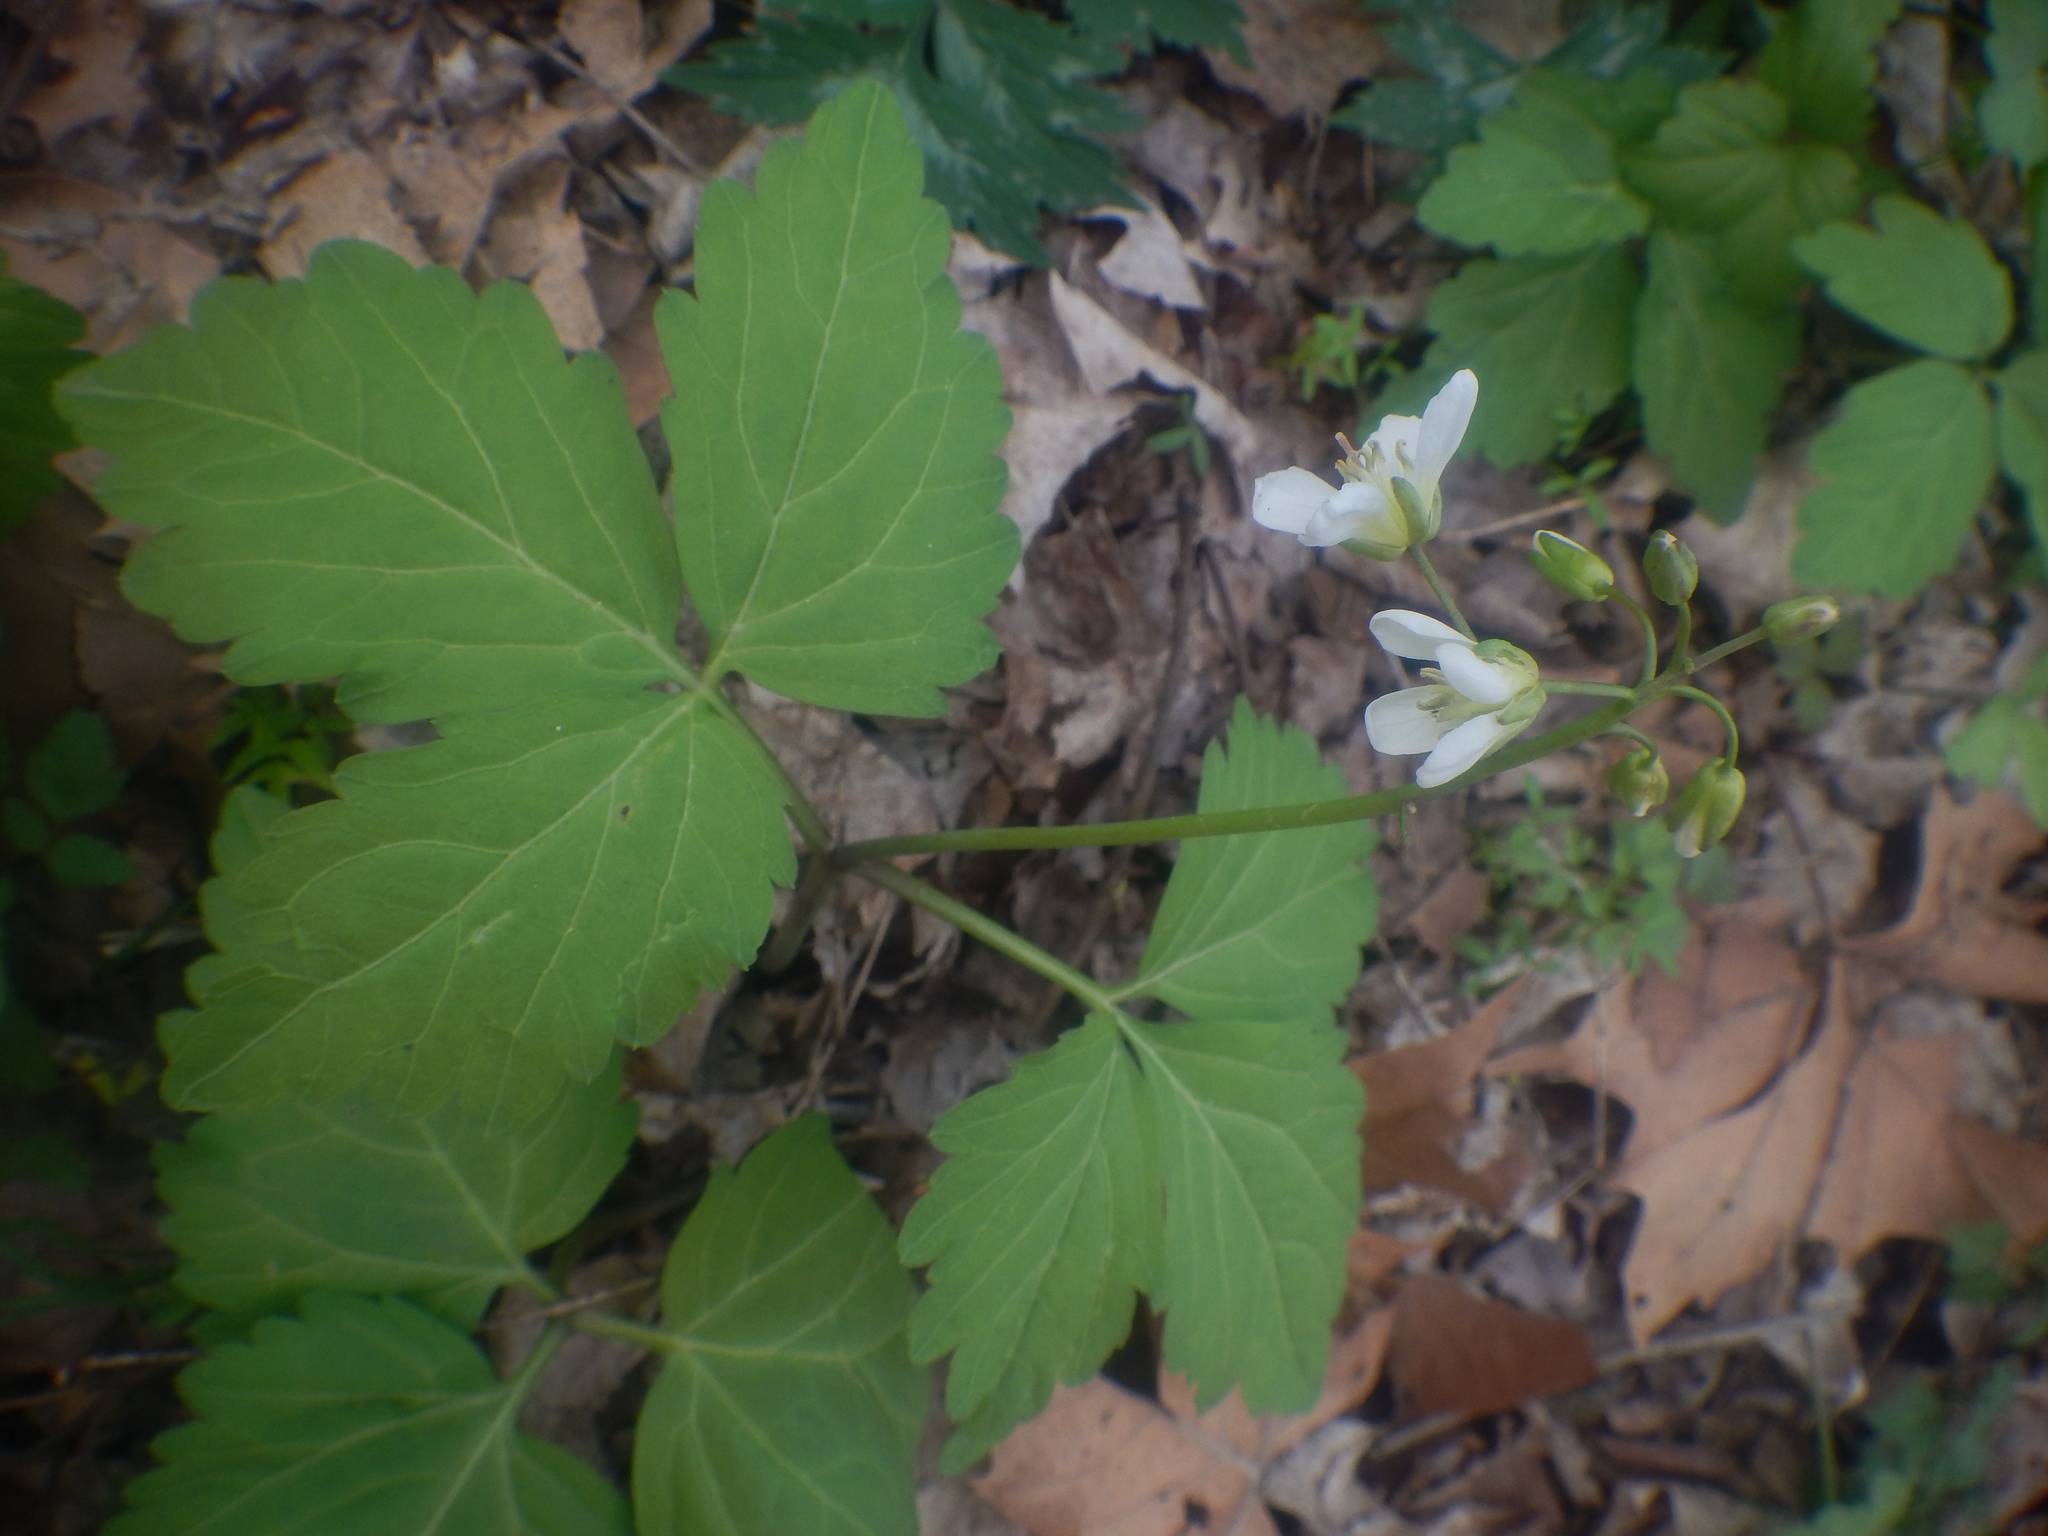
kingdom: Plantae
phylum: Tracheophyta
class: Magnoliopsida
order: Brassicales
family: Brassicaceae
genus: Cardamine
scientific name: Cardamine diphylla
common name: Broad-leaved toothwort
